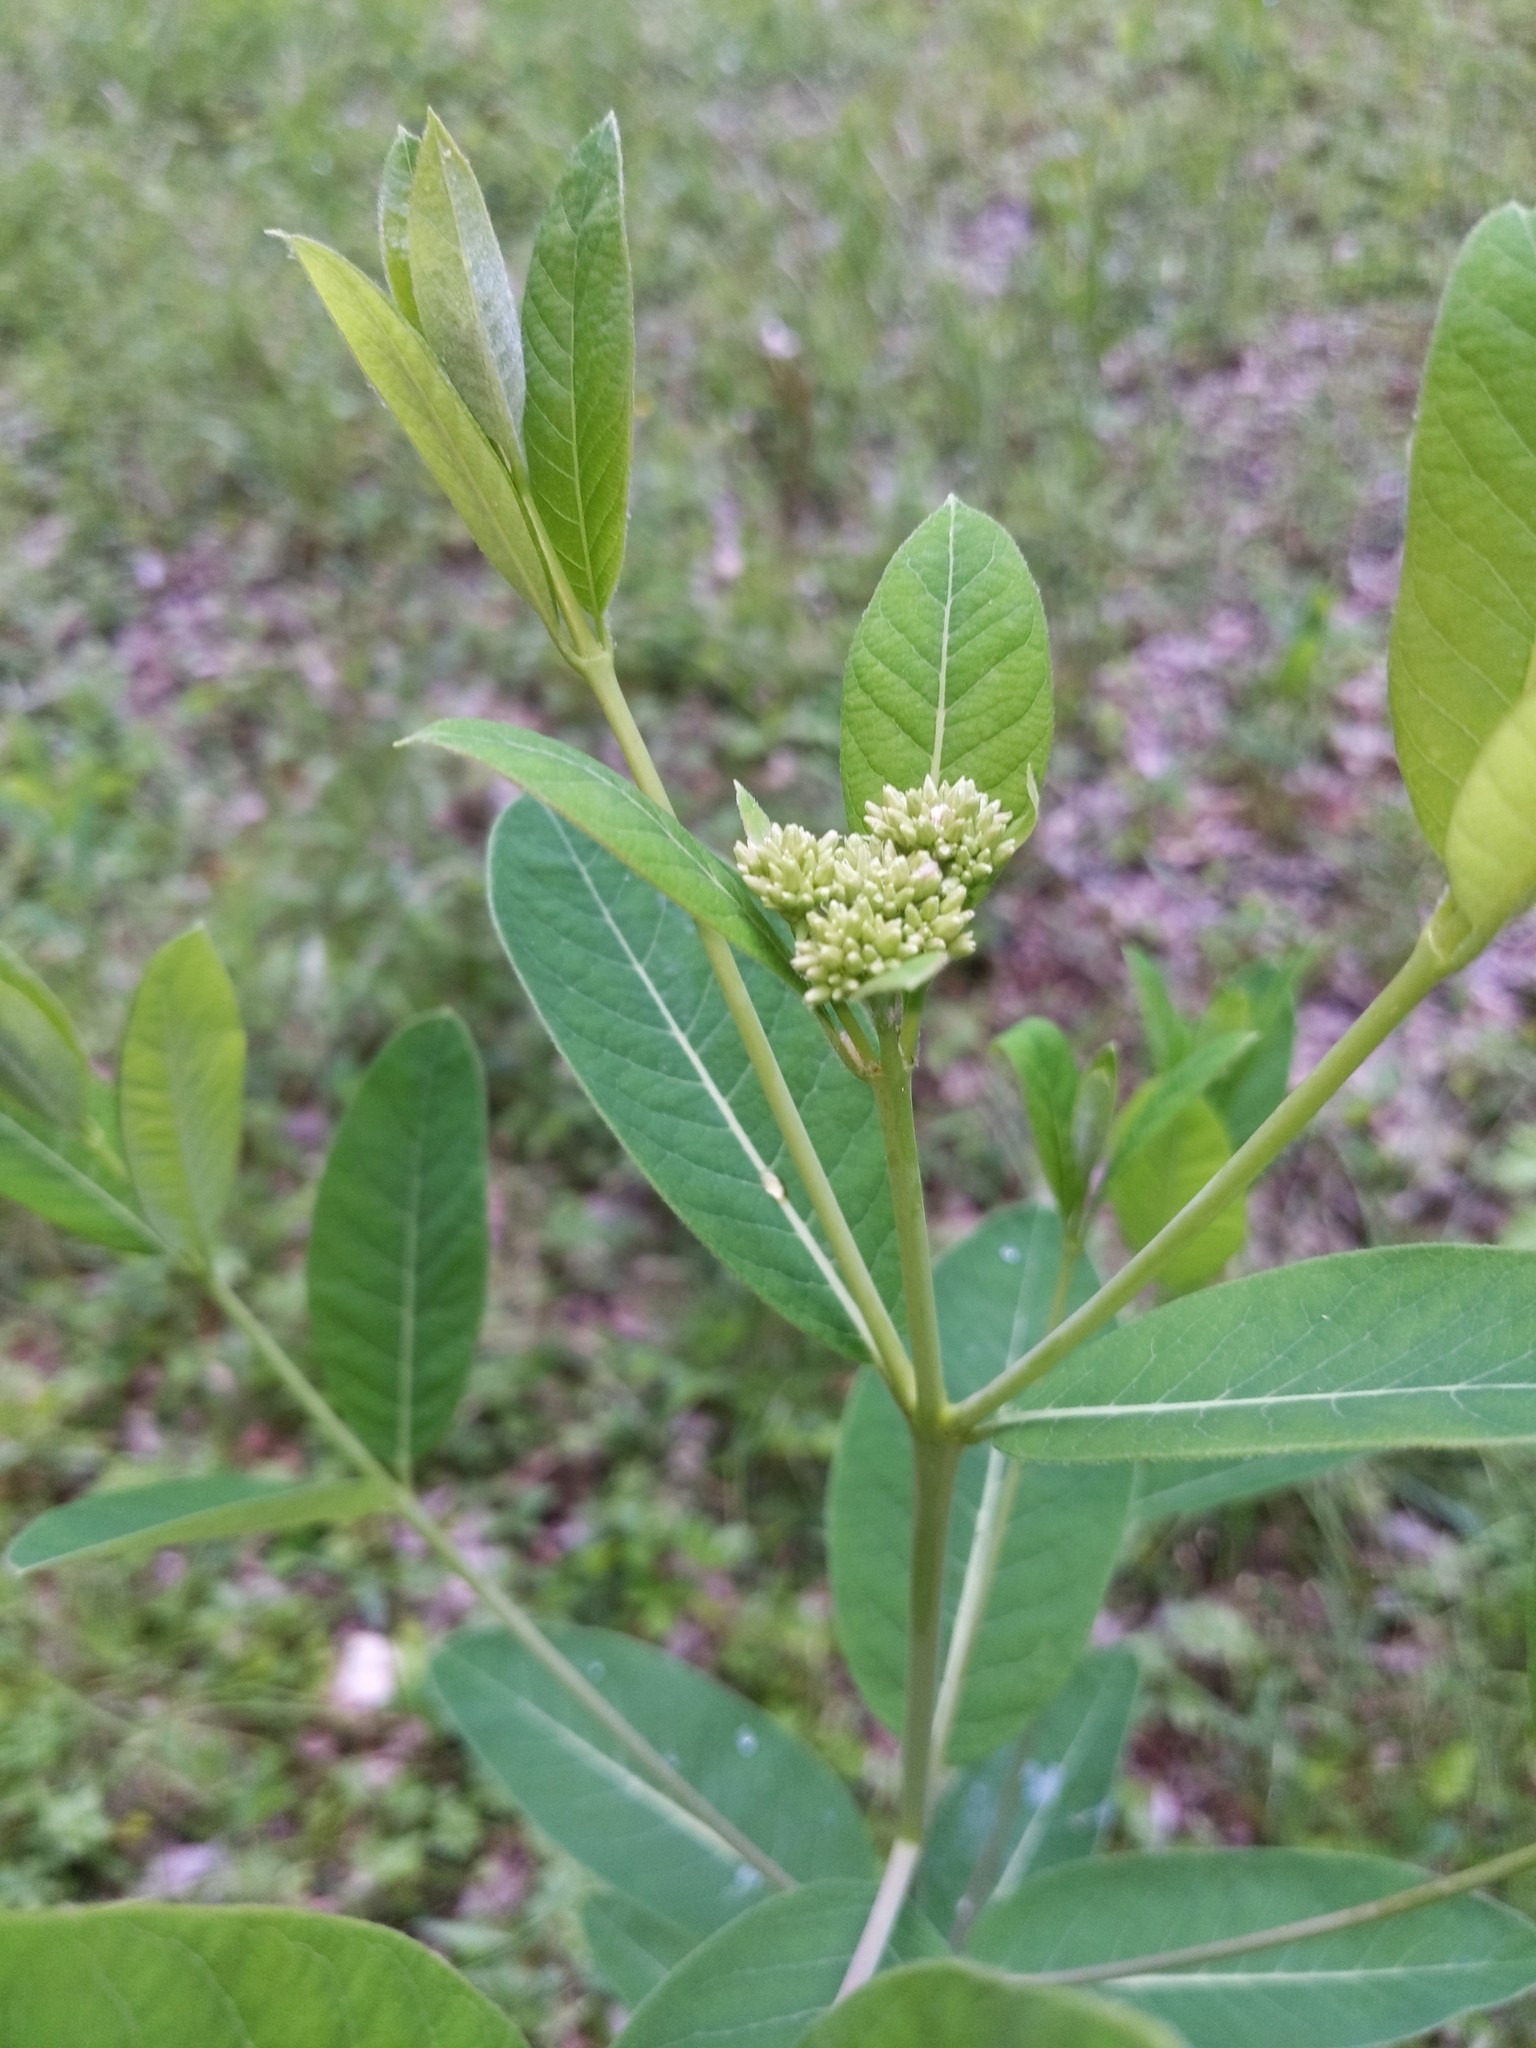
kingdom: Plantae
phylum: Tracheophyta
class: Magnoliopsida
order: Gentianales
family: Apocynaceae
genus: Apocynum
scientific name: Apocynum cannabinum
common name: Hemp dogbane
